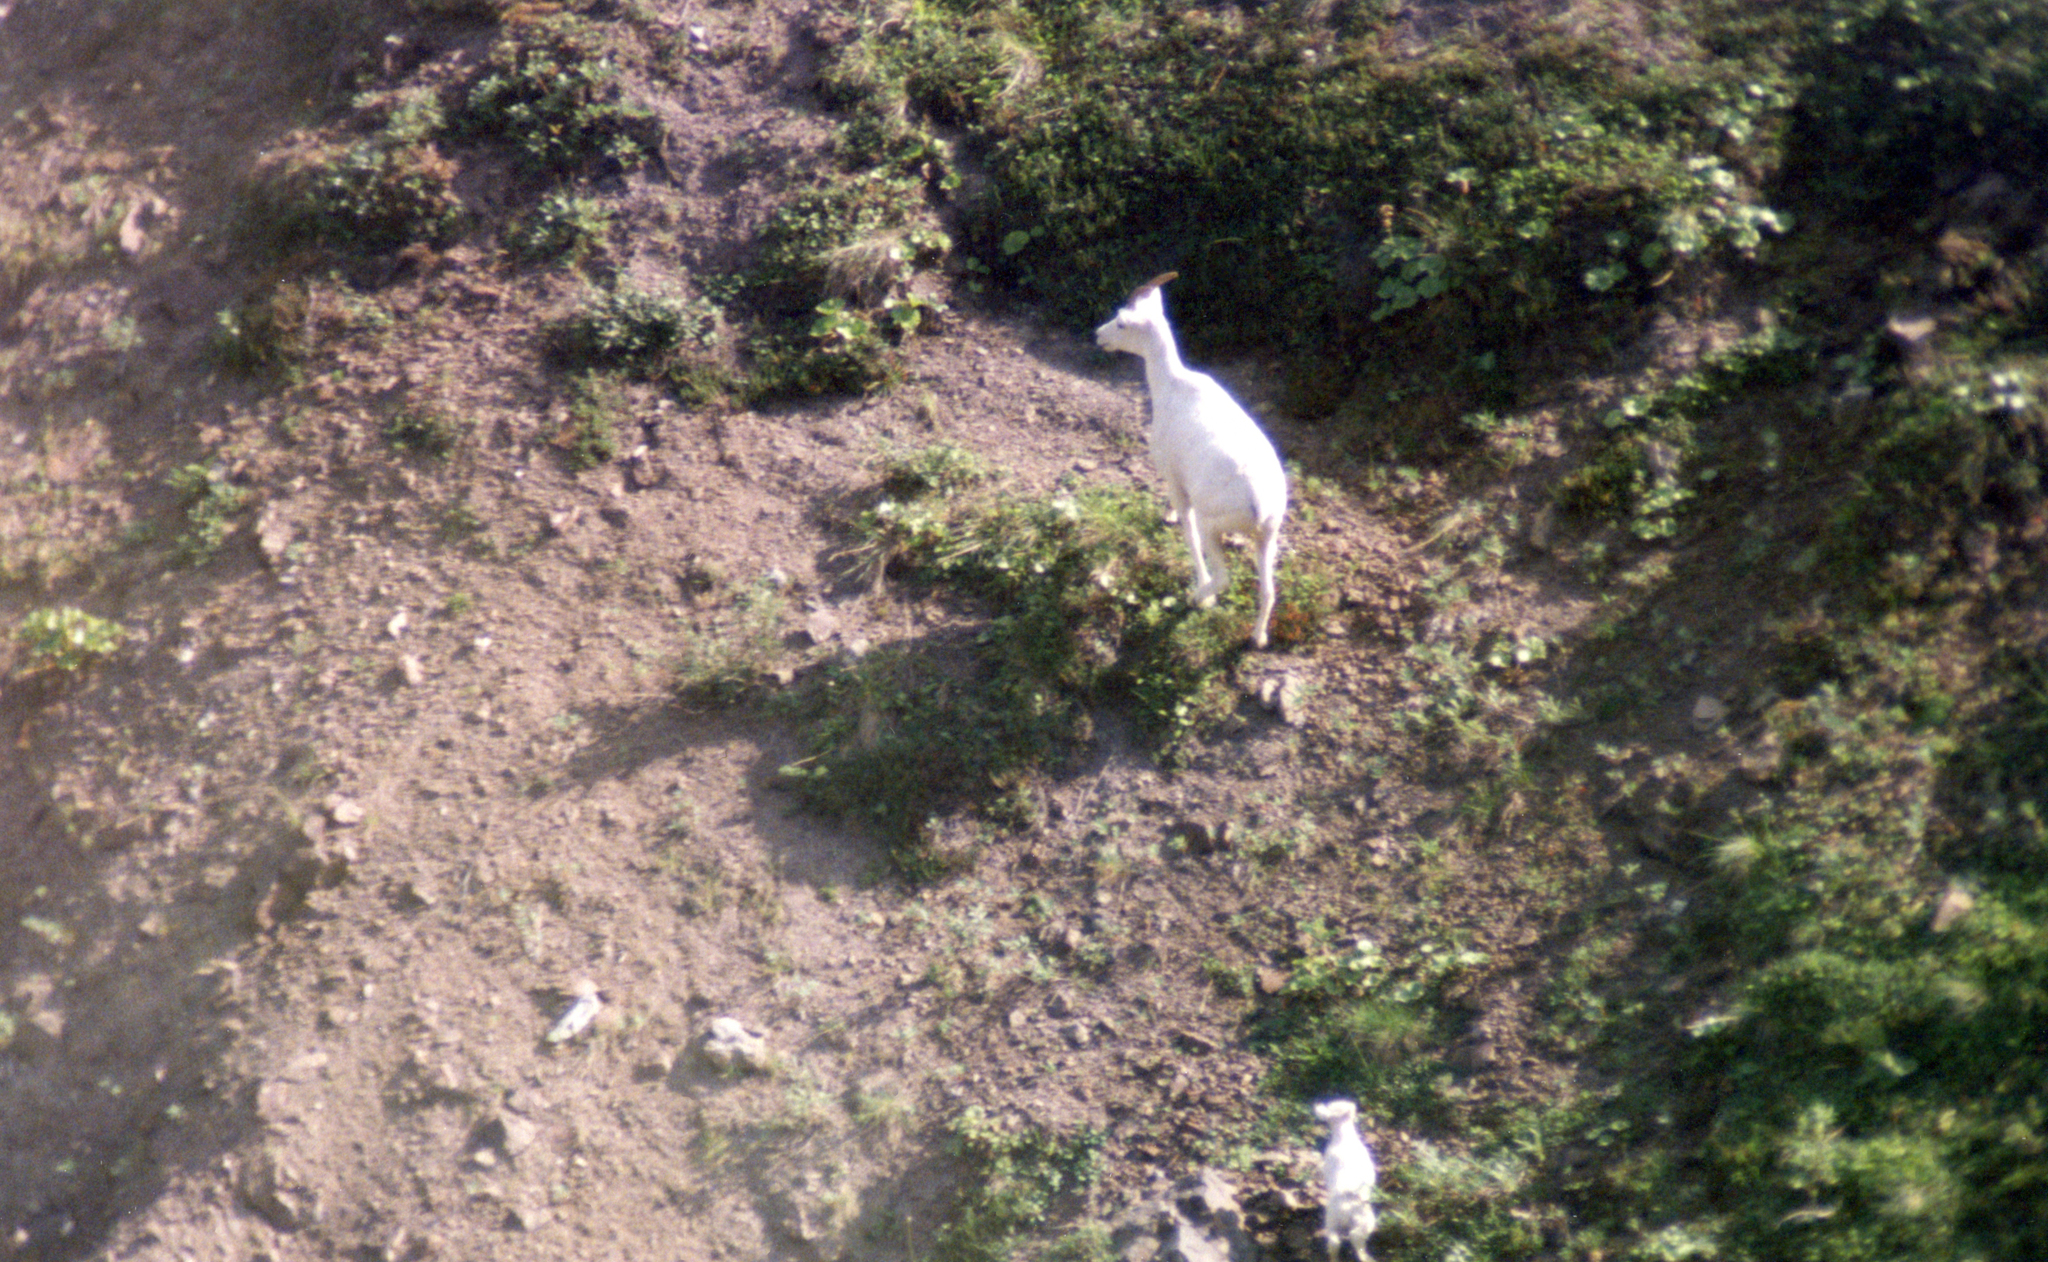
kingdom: Animalia
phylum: Chordata
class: Mammalia
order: Artiodactyla
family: Bovidae
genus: Ovis
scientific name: Ovis dalli
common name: Dall's sheep
